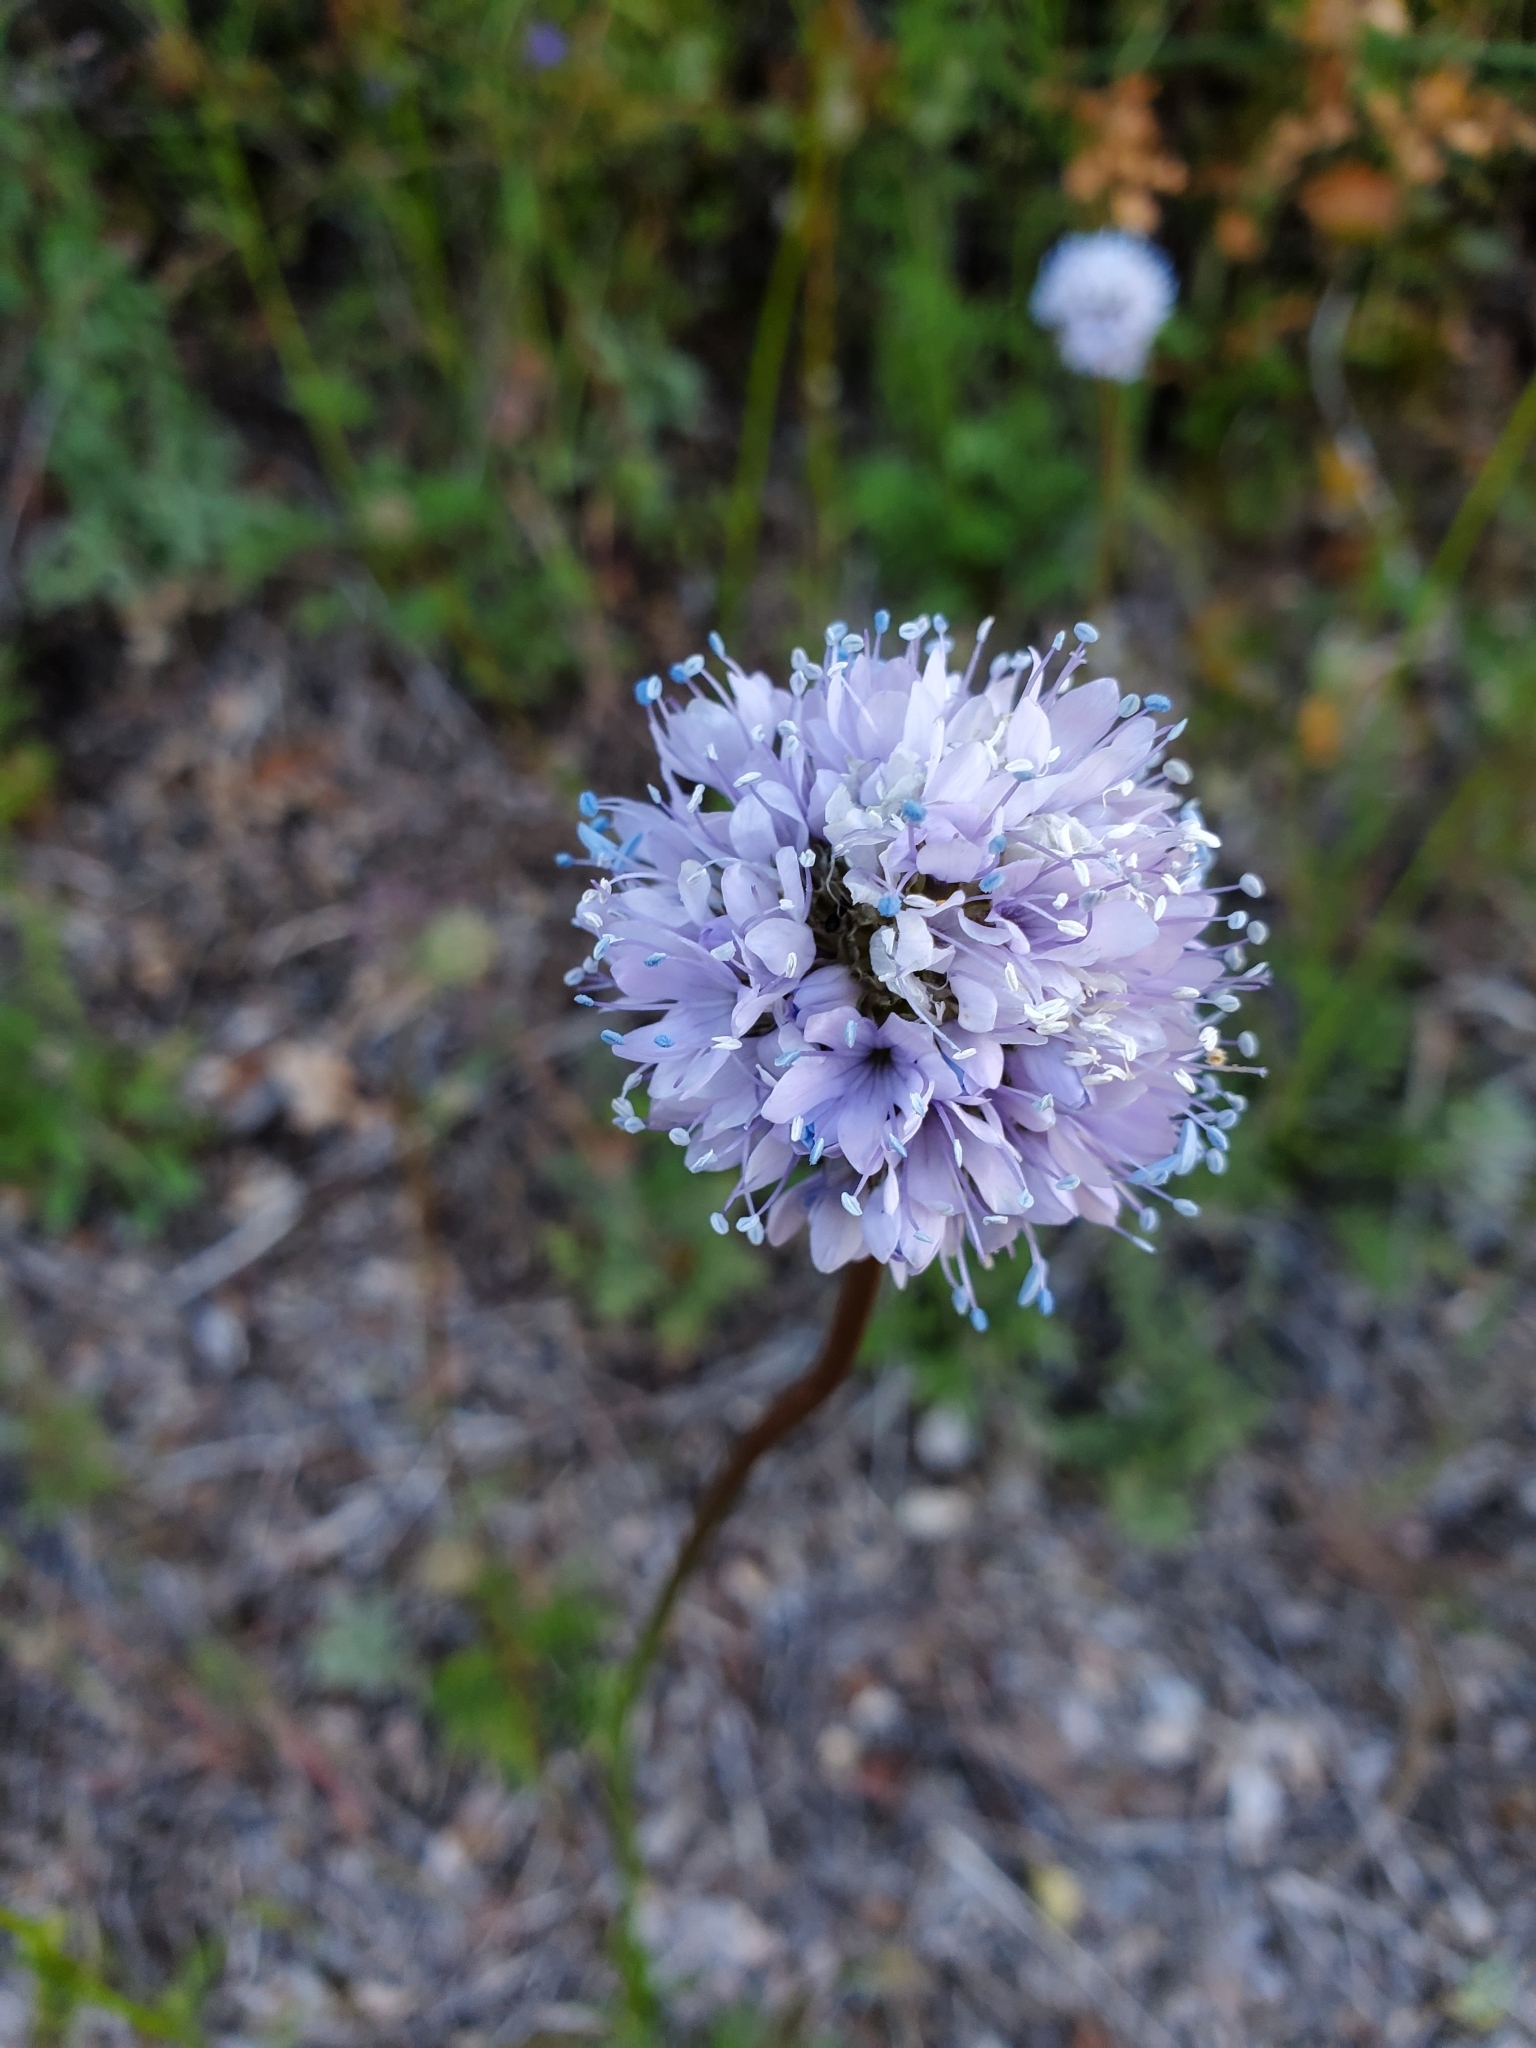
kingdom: Plantae
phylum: Tracheophyta
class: Magnoliopsida
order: Ericales
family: Polemoniaceae
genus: Gilia
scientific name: Gilia capitata
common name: Bluehead gilia
